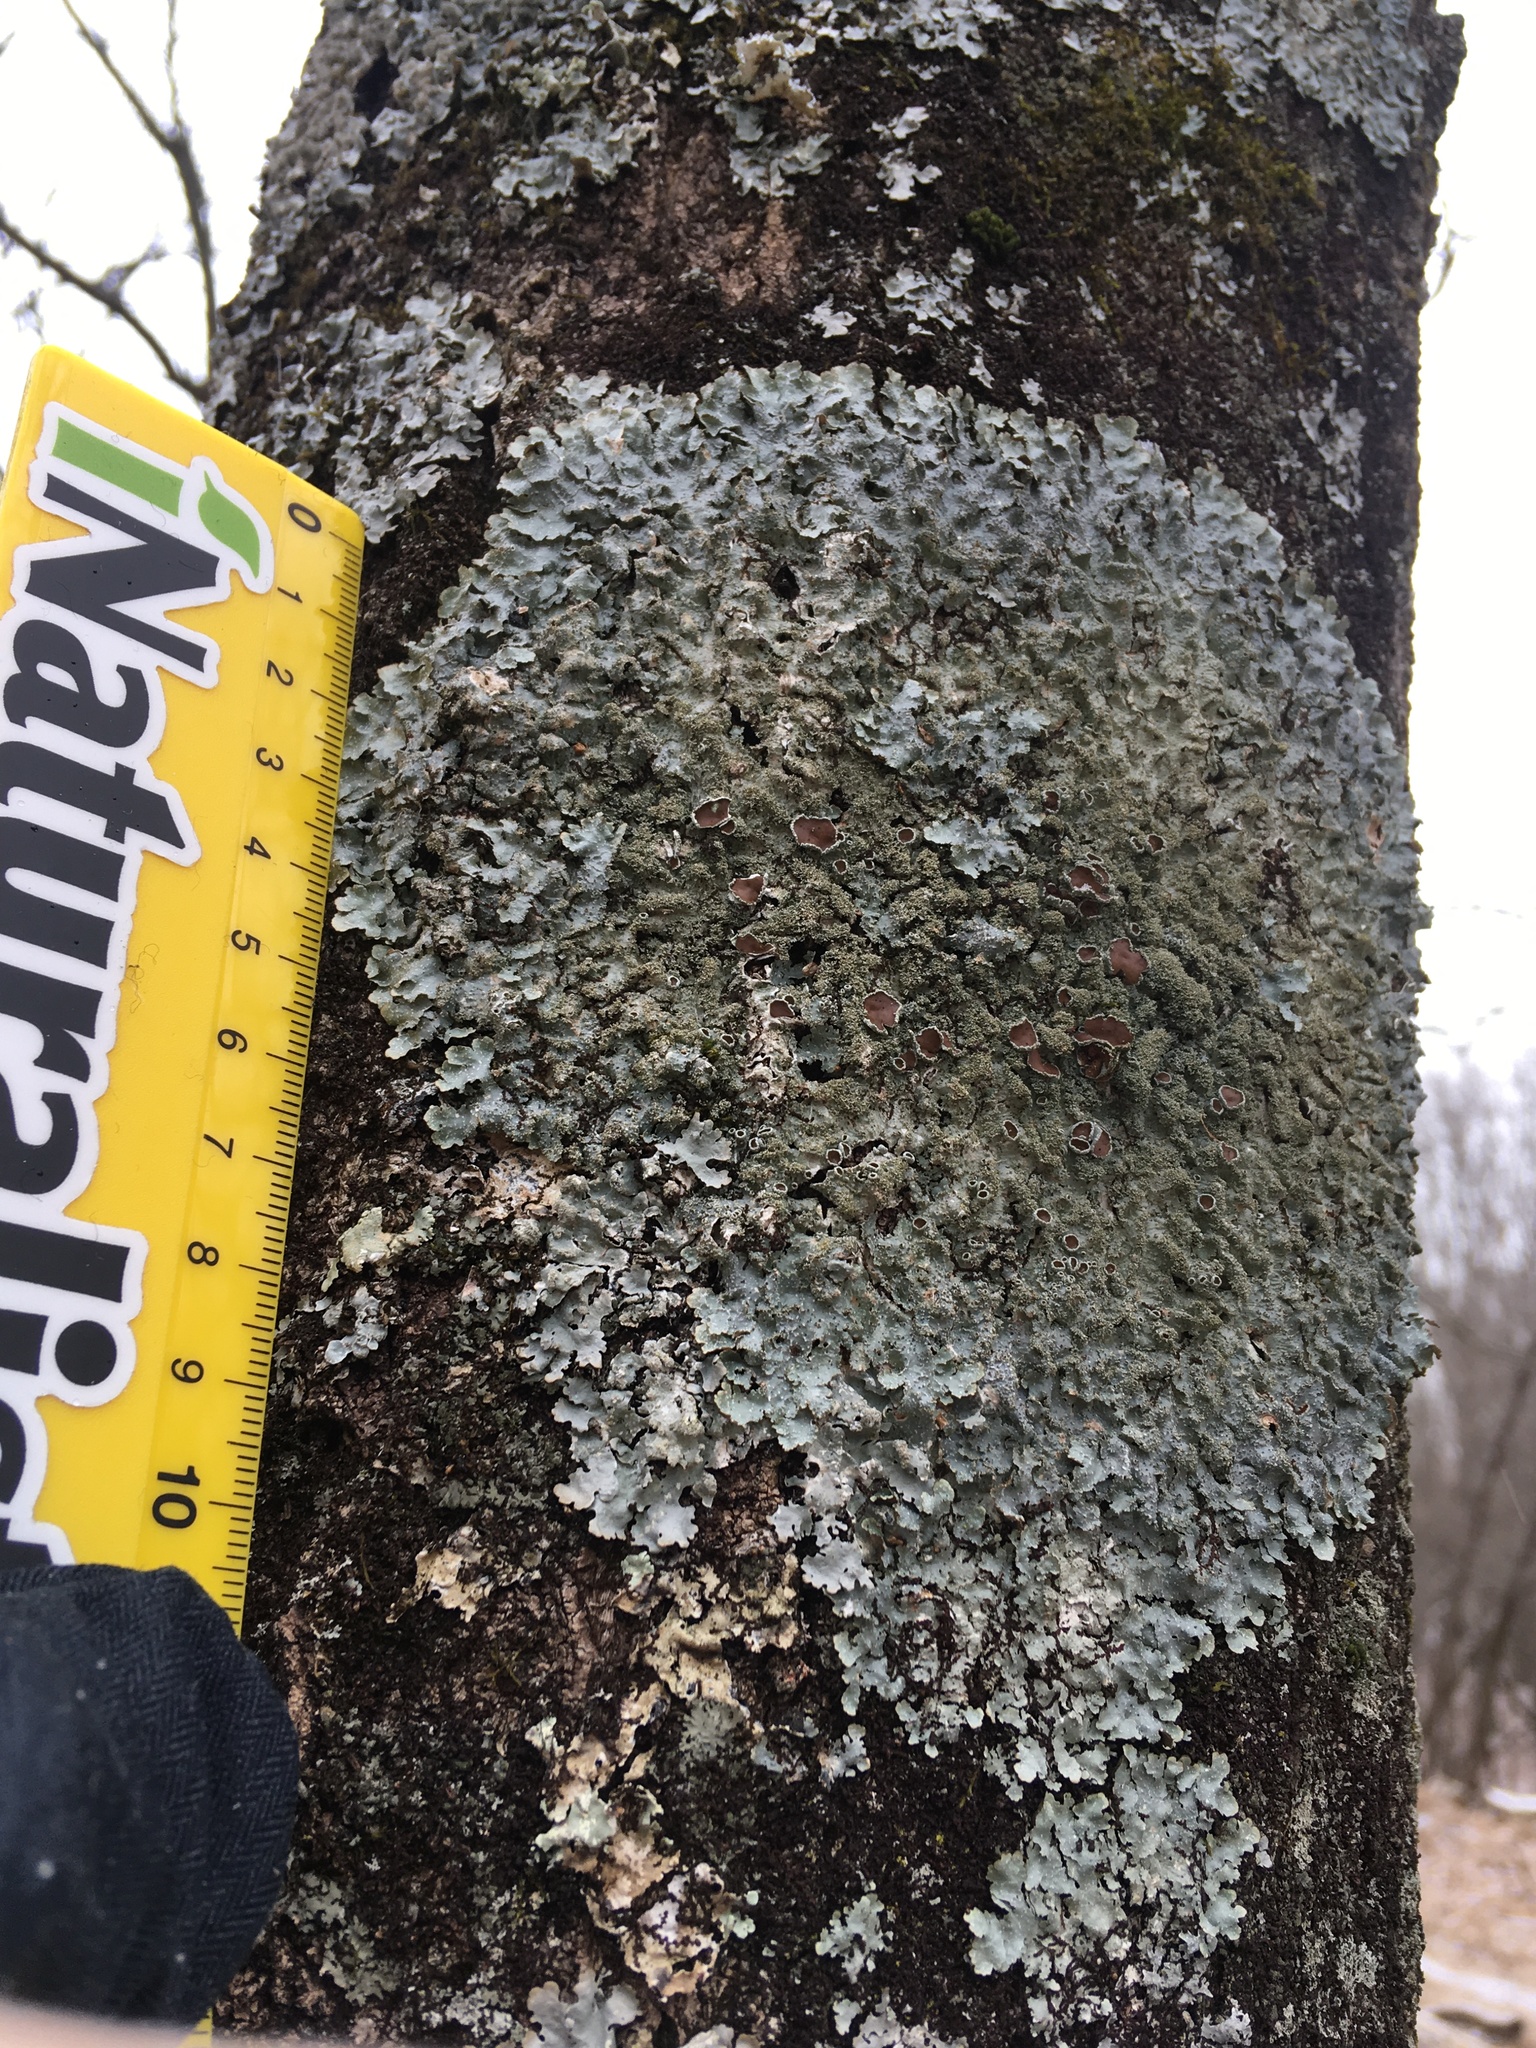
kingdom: Fungi
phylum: Ascomycota
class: Lecanoromycetes
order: Lecanorales
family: Parmeliaceae
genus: Punctelia
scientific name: Punctelia rudecta
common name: Rough speckled shield lichen
